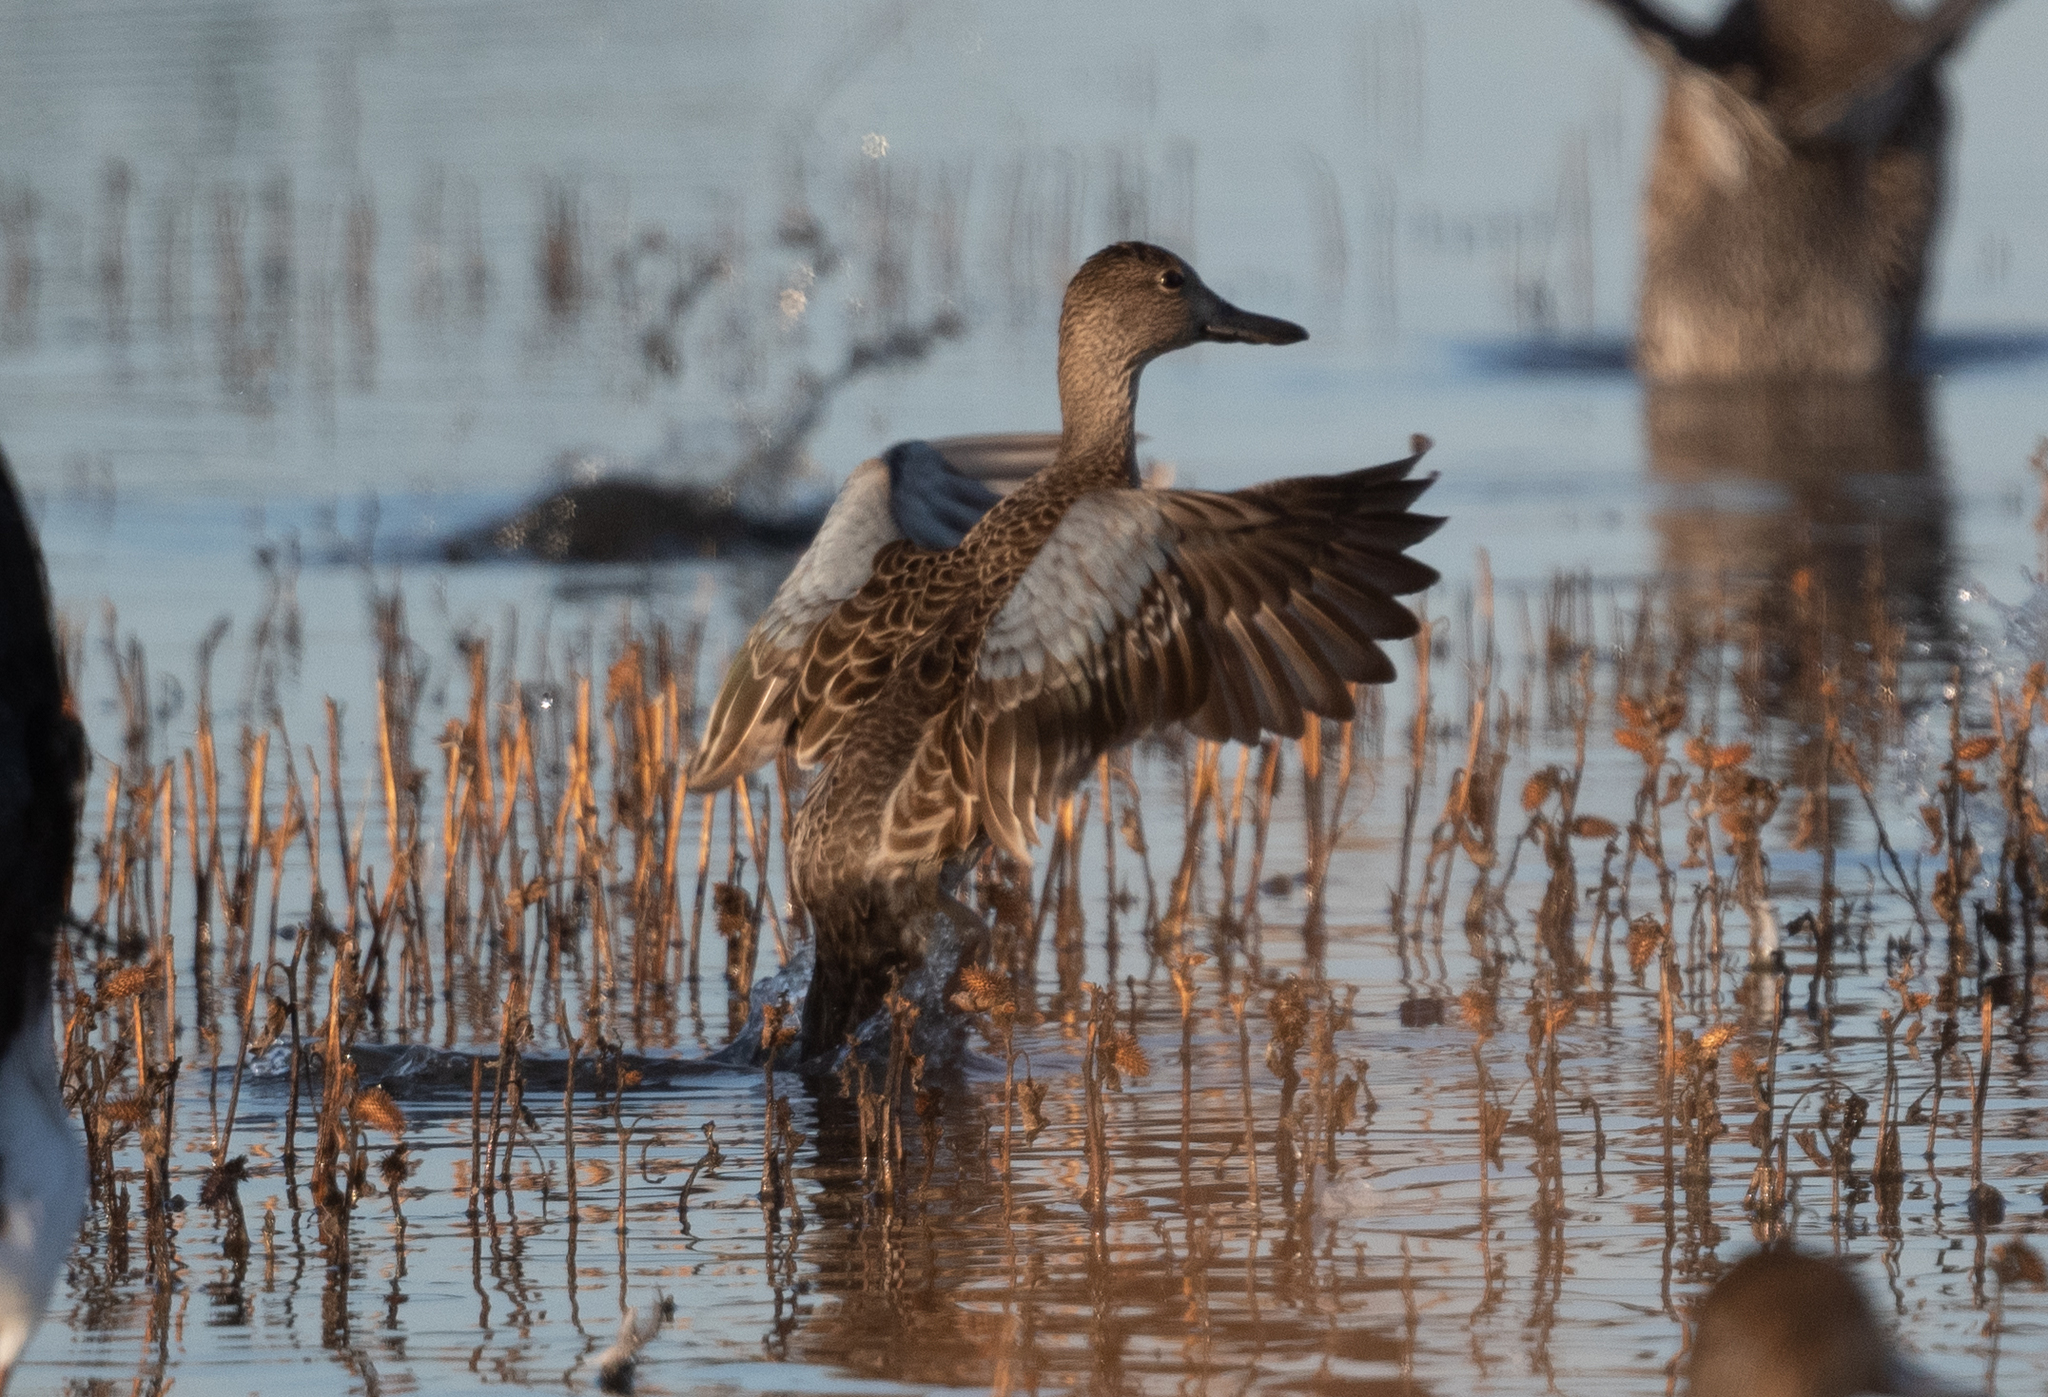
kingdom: Animalia
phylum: Chordata
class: Aves
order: Anseriformes
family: Anatidae
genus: Spatula
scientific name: Spatula cyanoptera
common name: Cinnamon teal
